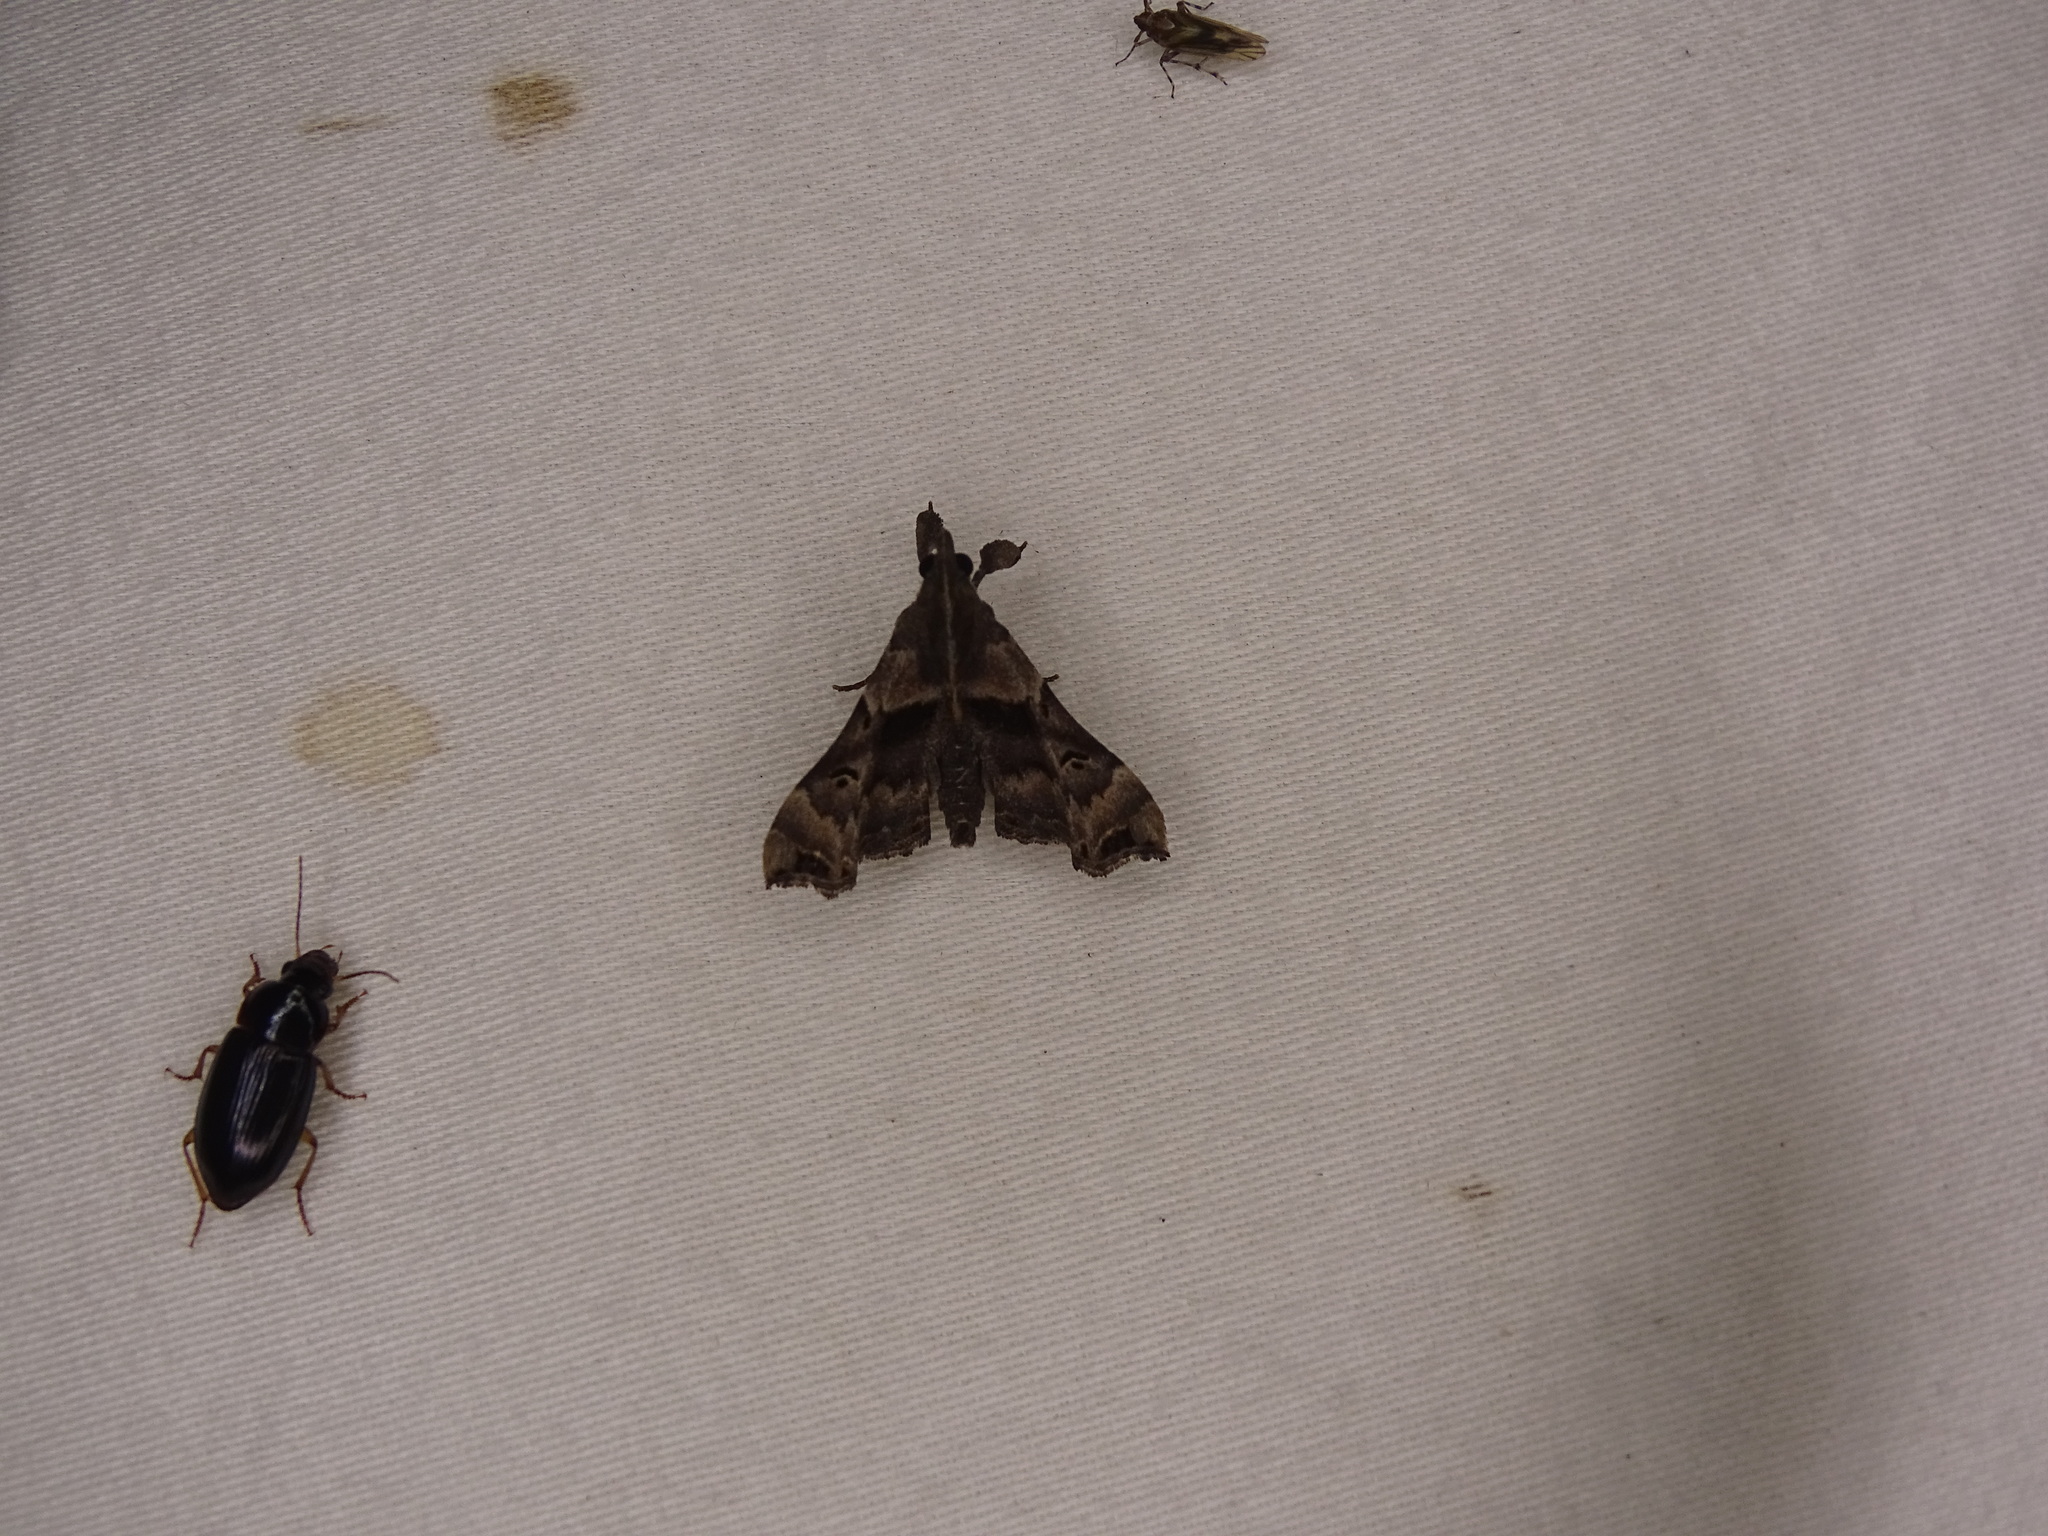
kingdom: Animalia
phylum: Arthropoda
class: Insecta
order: Lepidoptera
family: Erebidae
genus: Palthis
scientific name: Palthis asopialis
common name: Faint-spotted palthis moth
